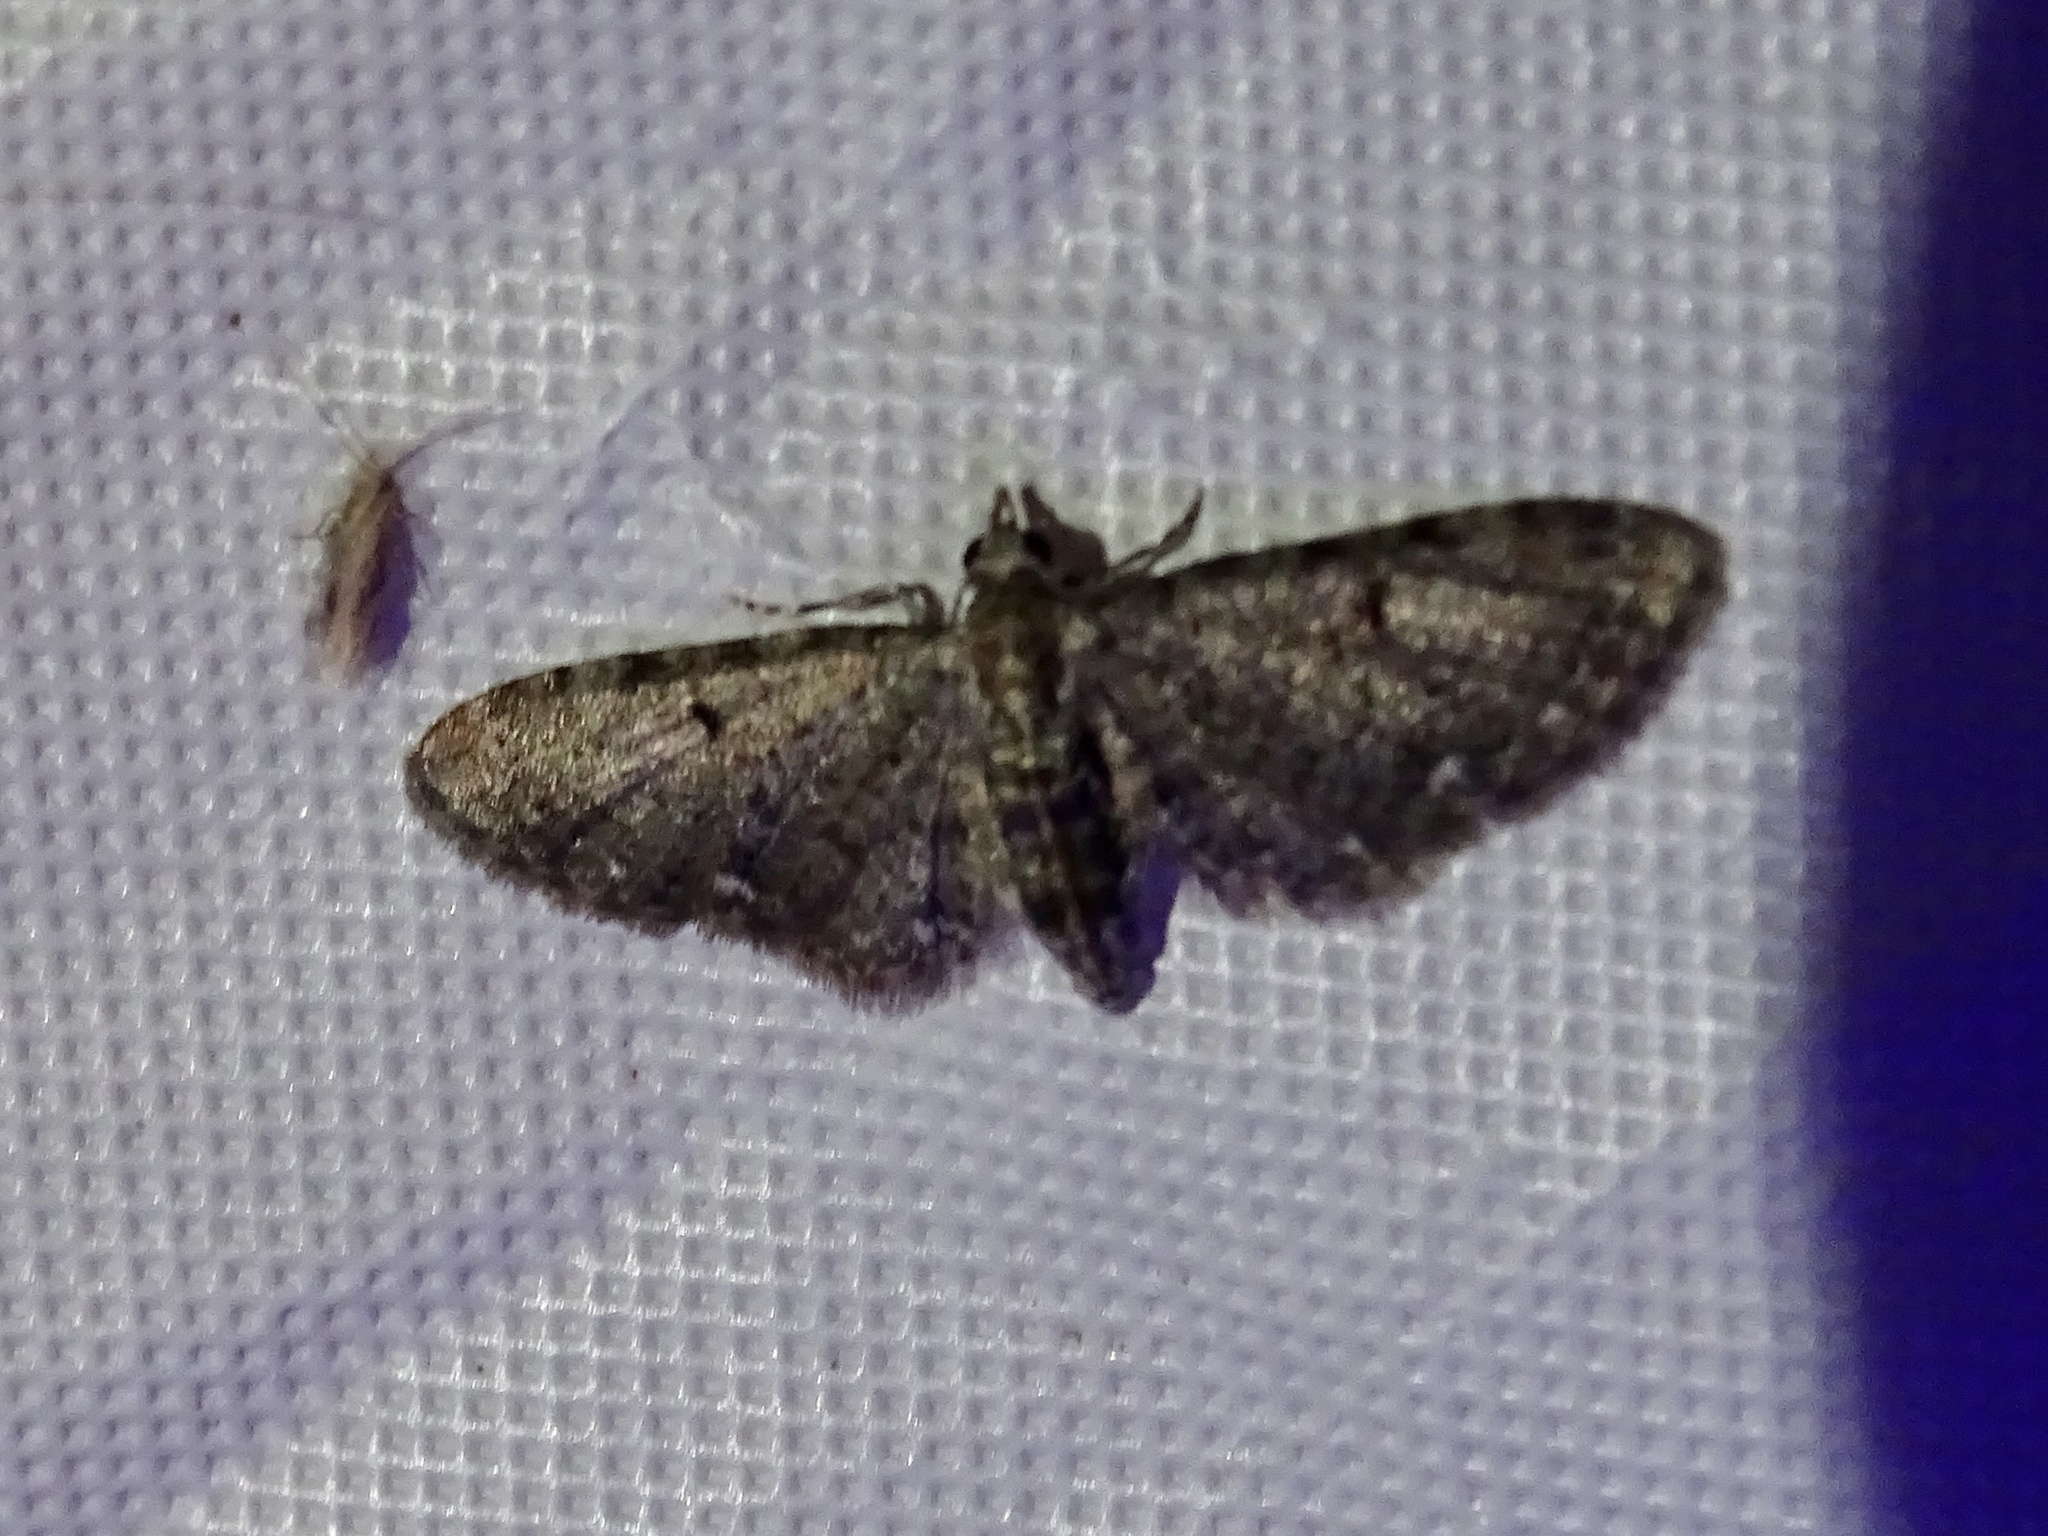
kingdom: Animalia
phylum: Arthropoda
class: Insecta
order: Lepidoptera
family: Geometridae
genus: Eupithecia
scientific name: Eupithecia miserulata
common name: Common eupithecia
